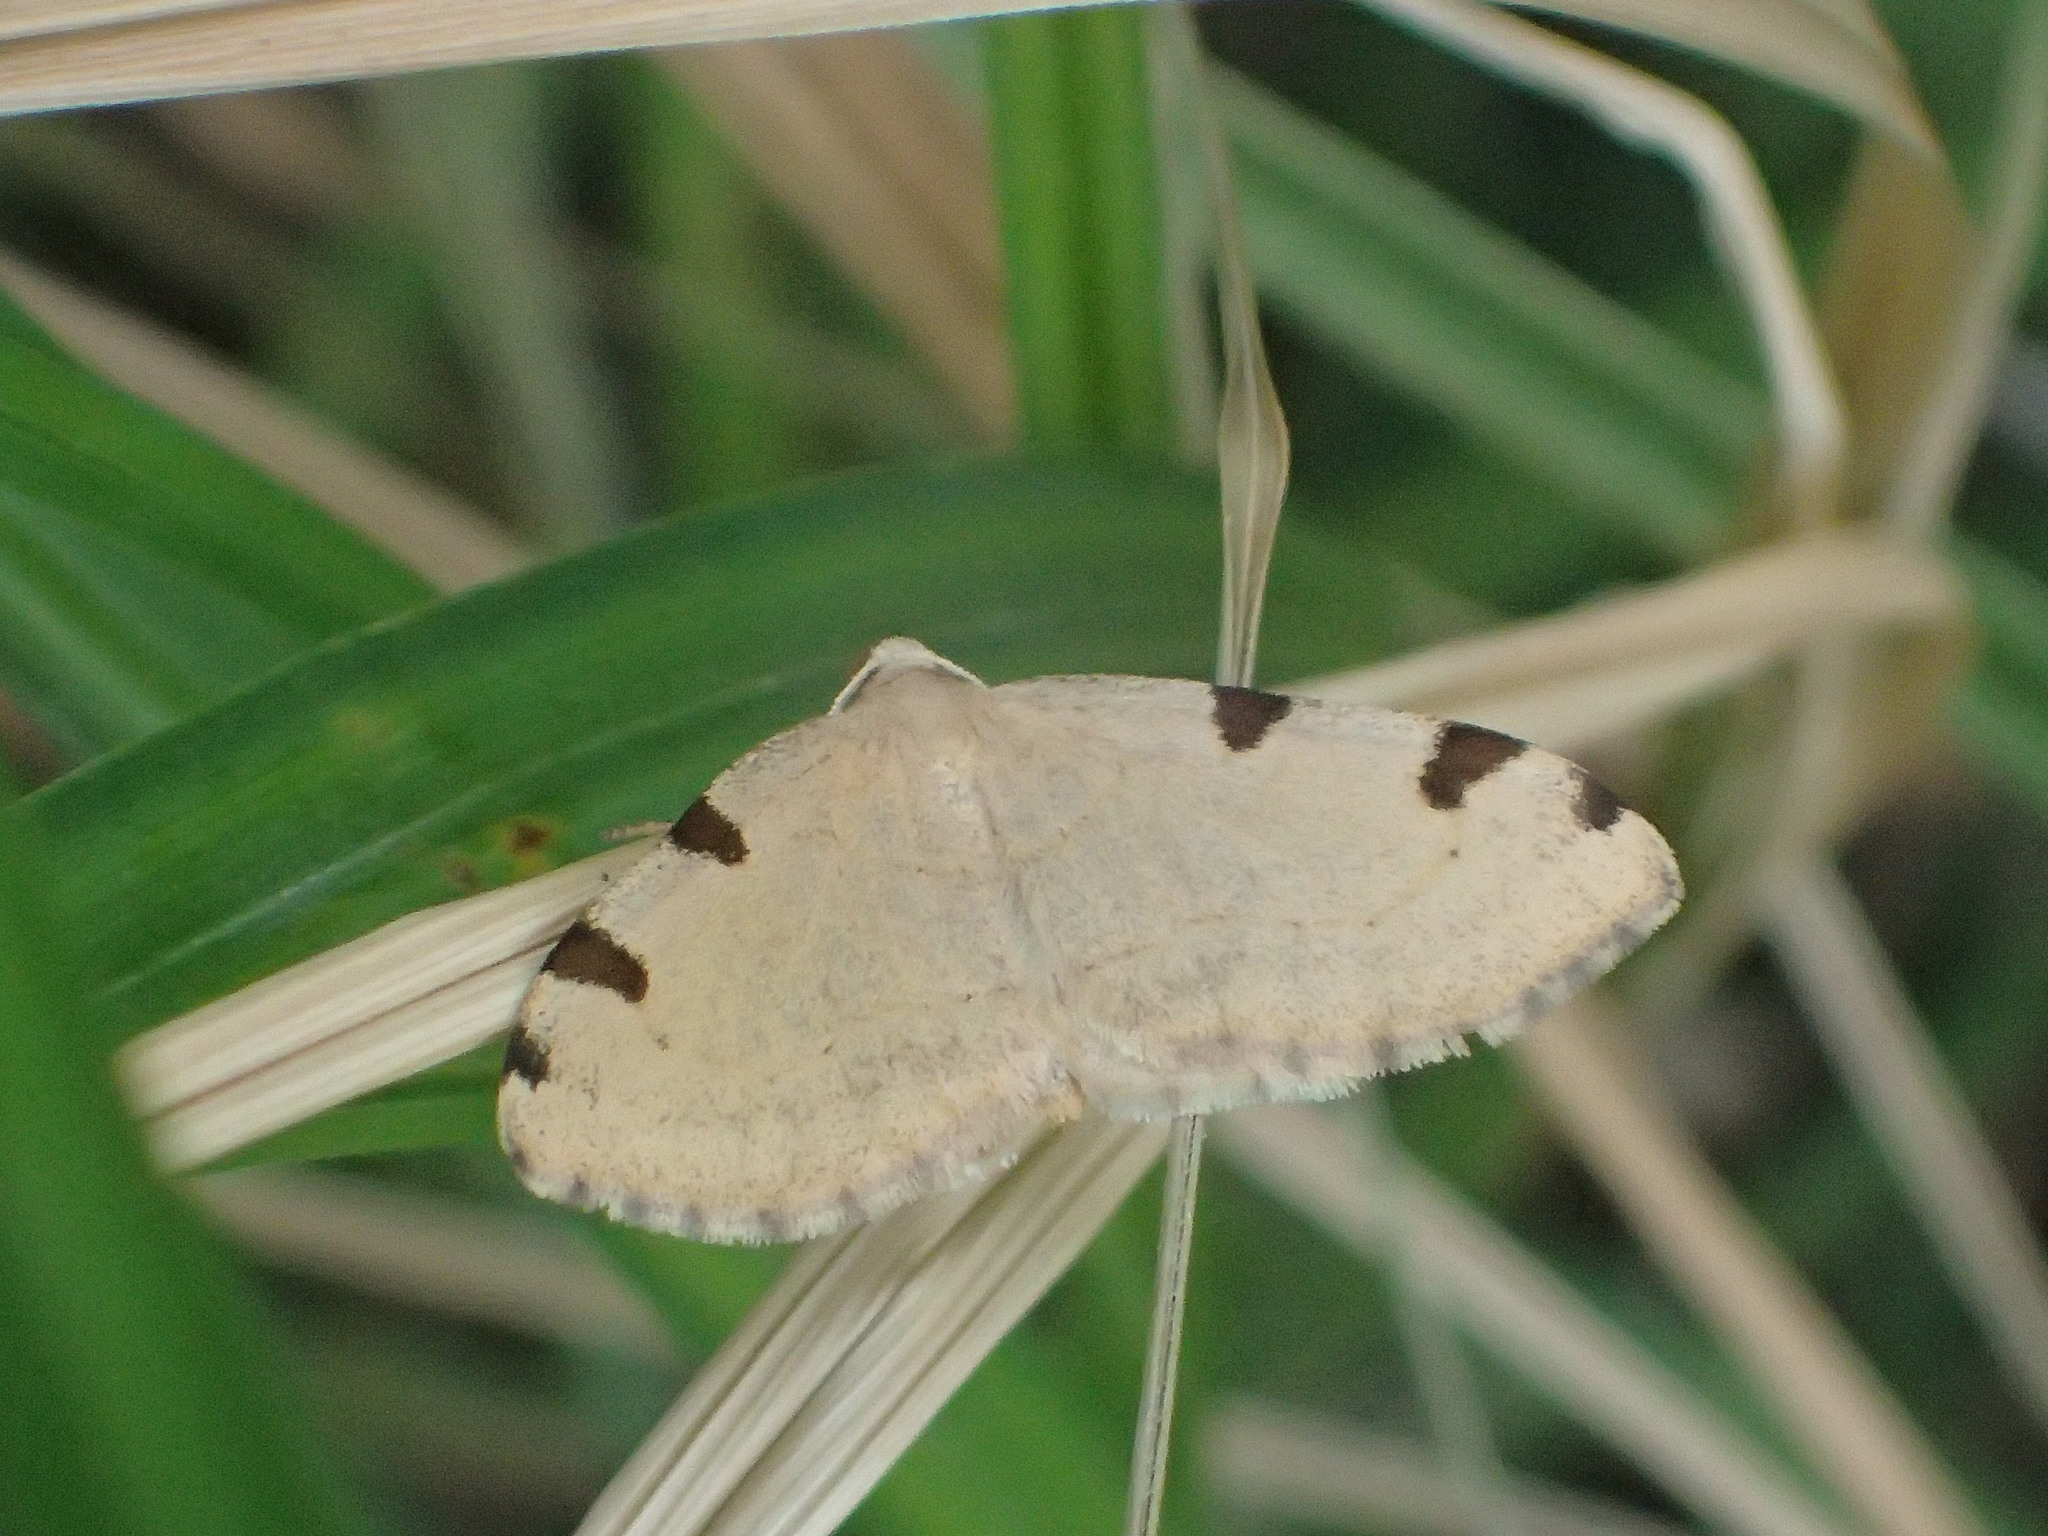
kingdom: Animalia
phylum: Arthropoda
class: Insecta
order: Lepidoptera
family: Geometridae
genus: Heterophleps
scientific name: Heterophleps triguttaria
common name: Three-spotted fillip
